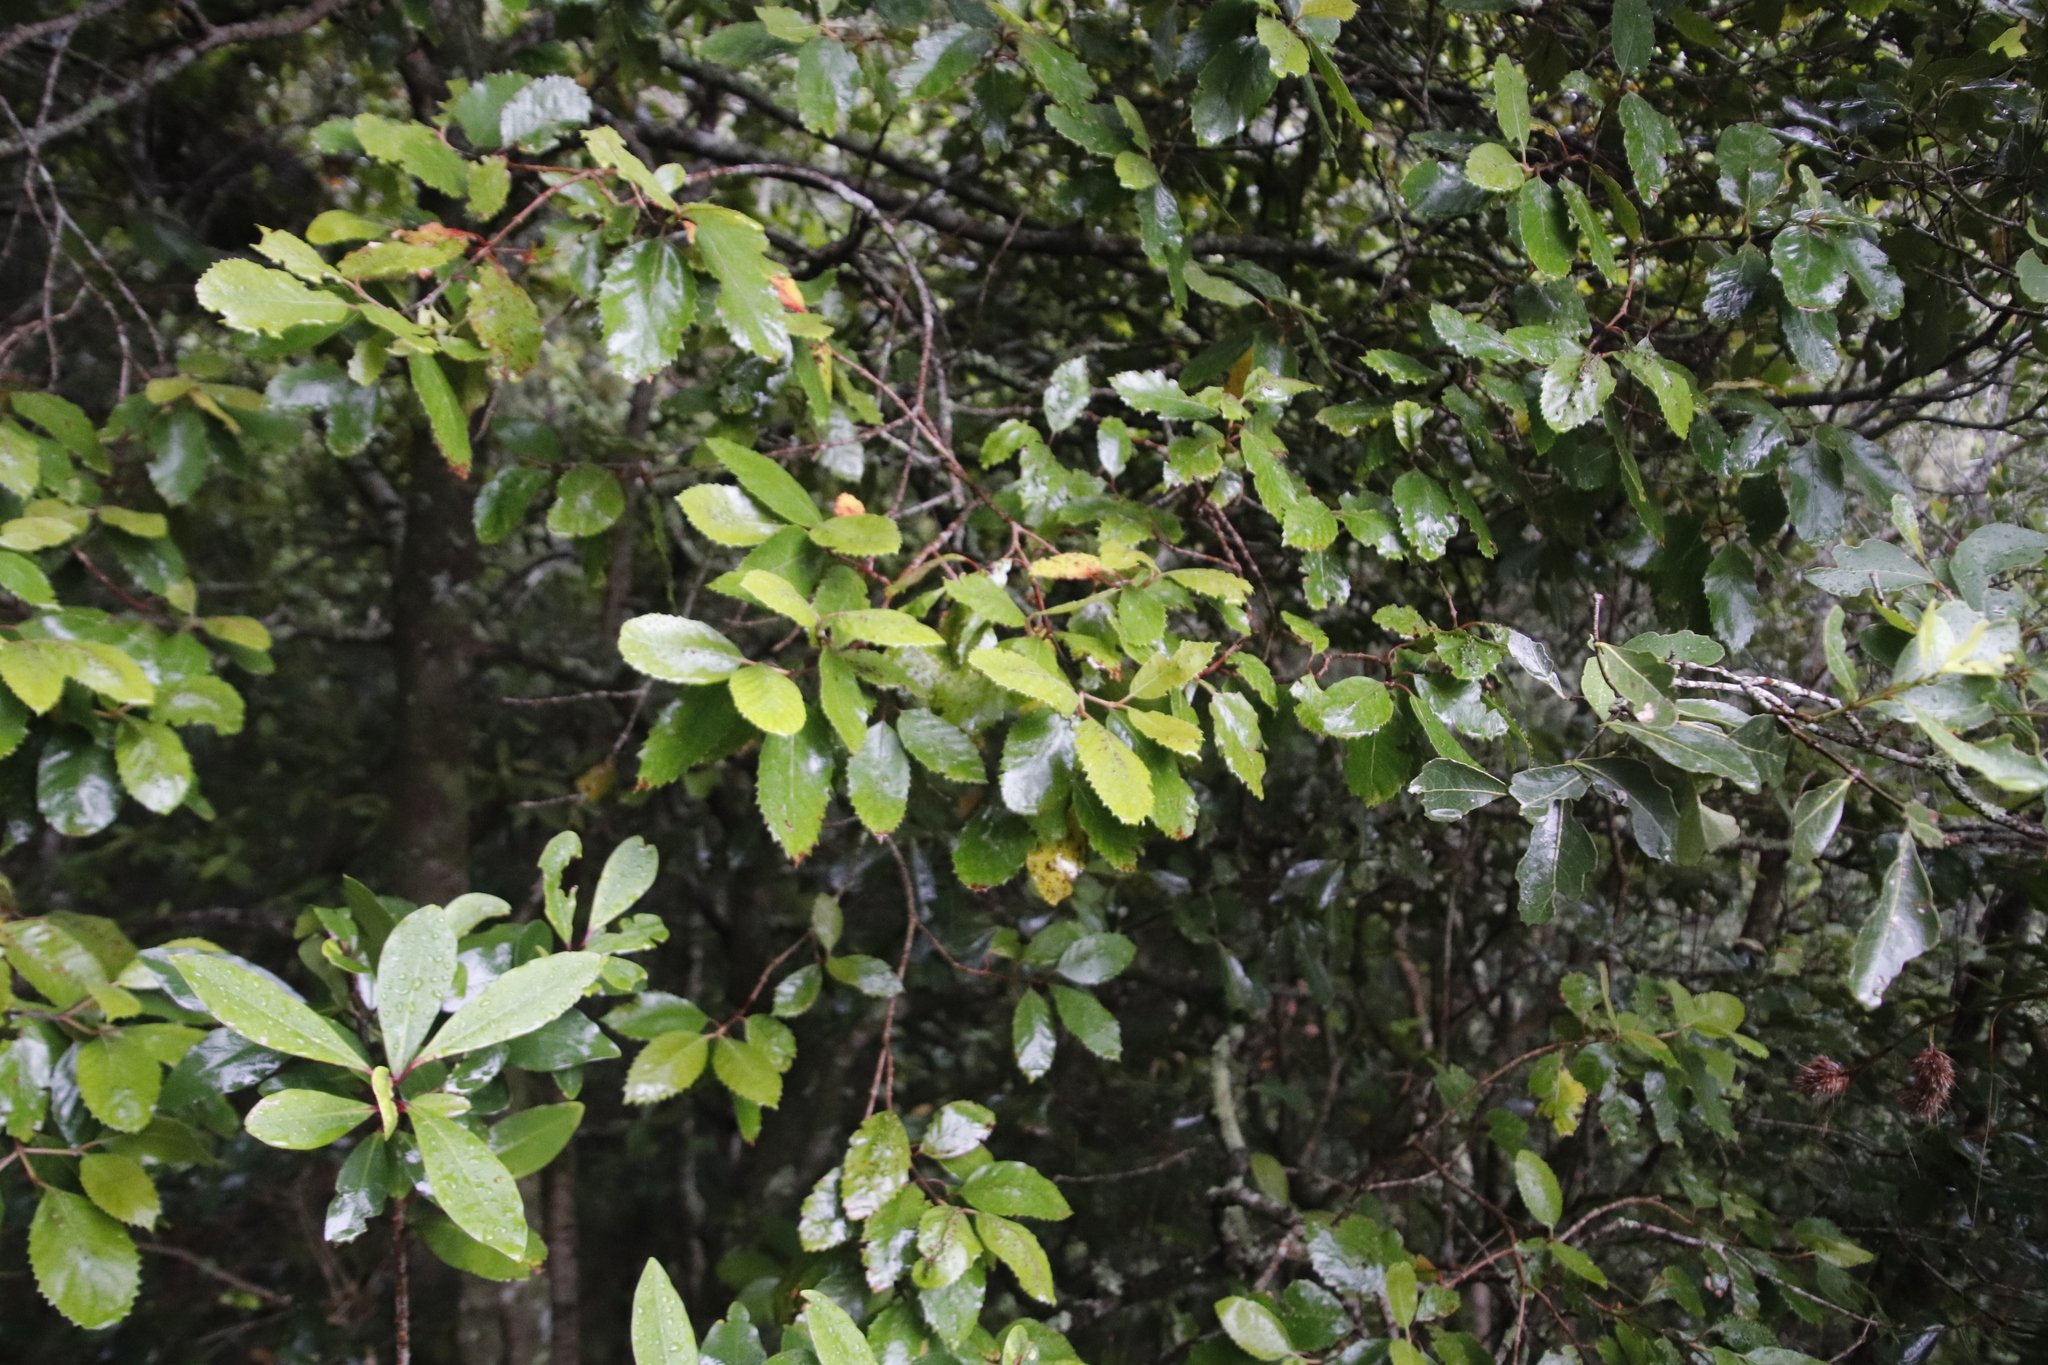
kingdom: Plantae
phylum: Tracheophyta
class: Magnoliopsida
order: Cornales
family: Curtisiaceae
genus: Curtisia
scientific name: Curtisia dentata
